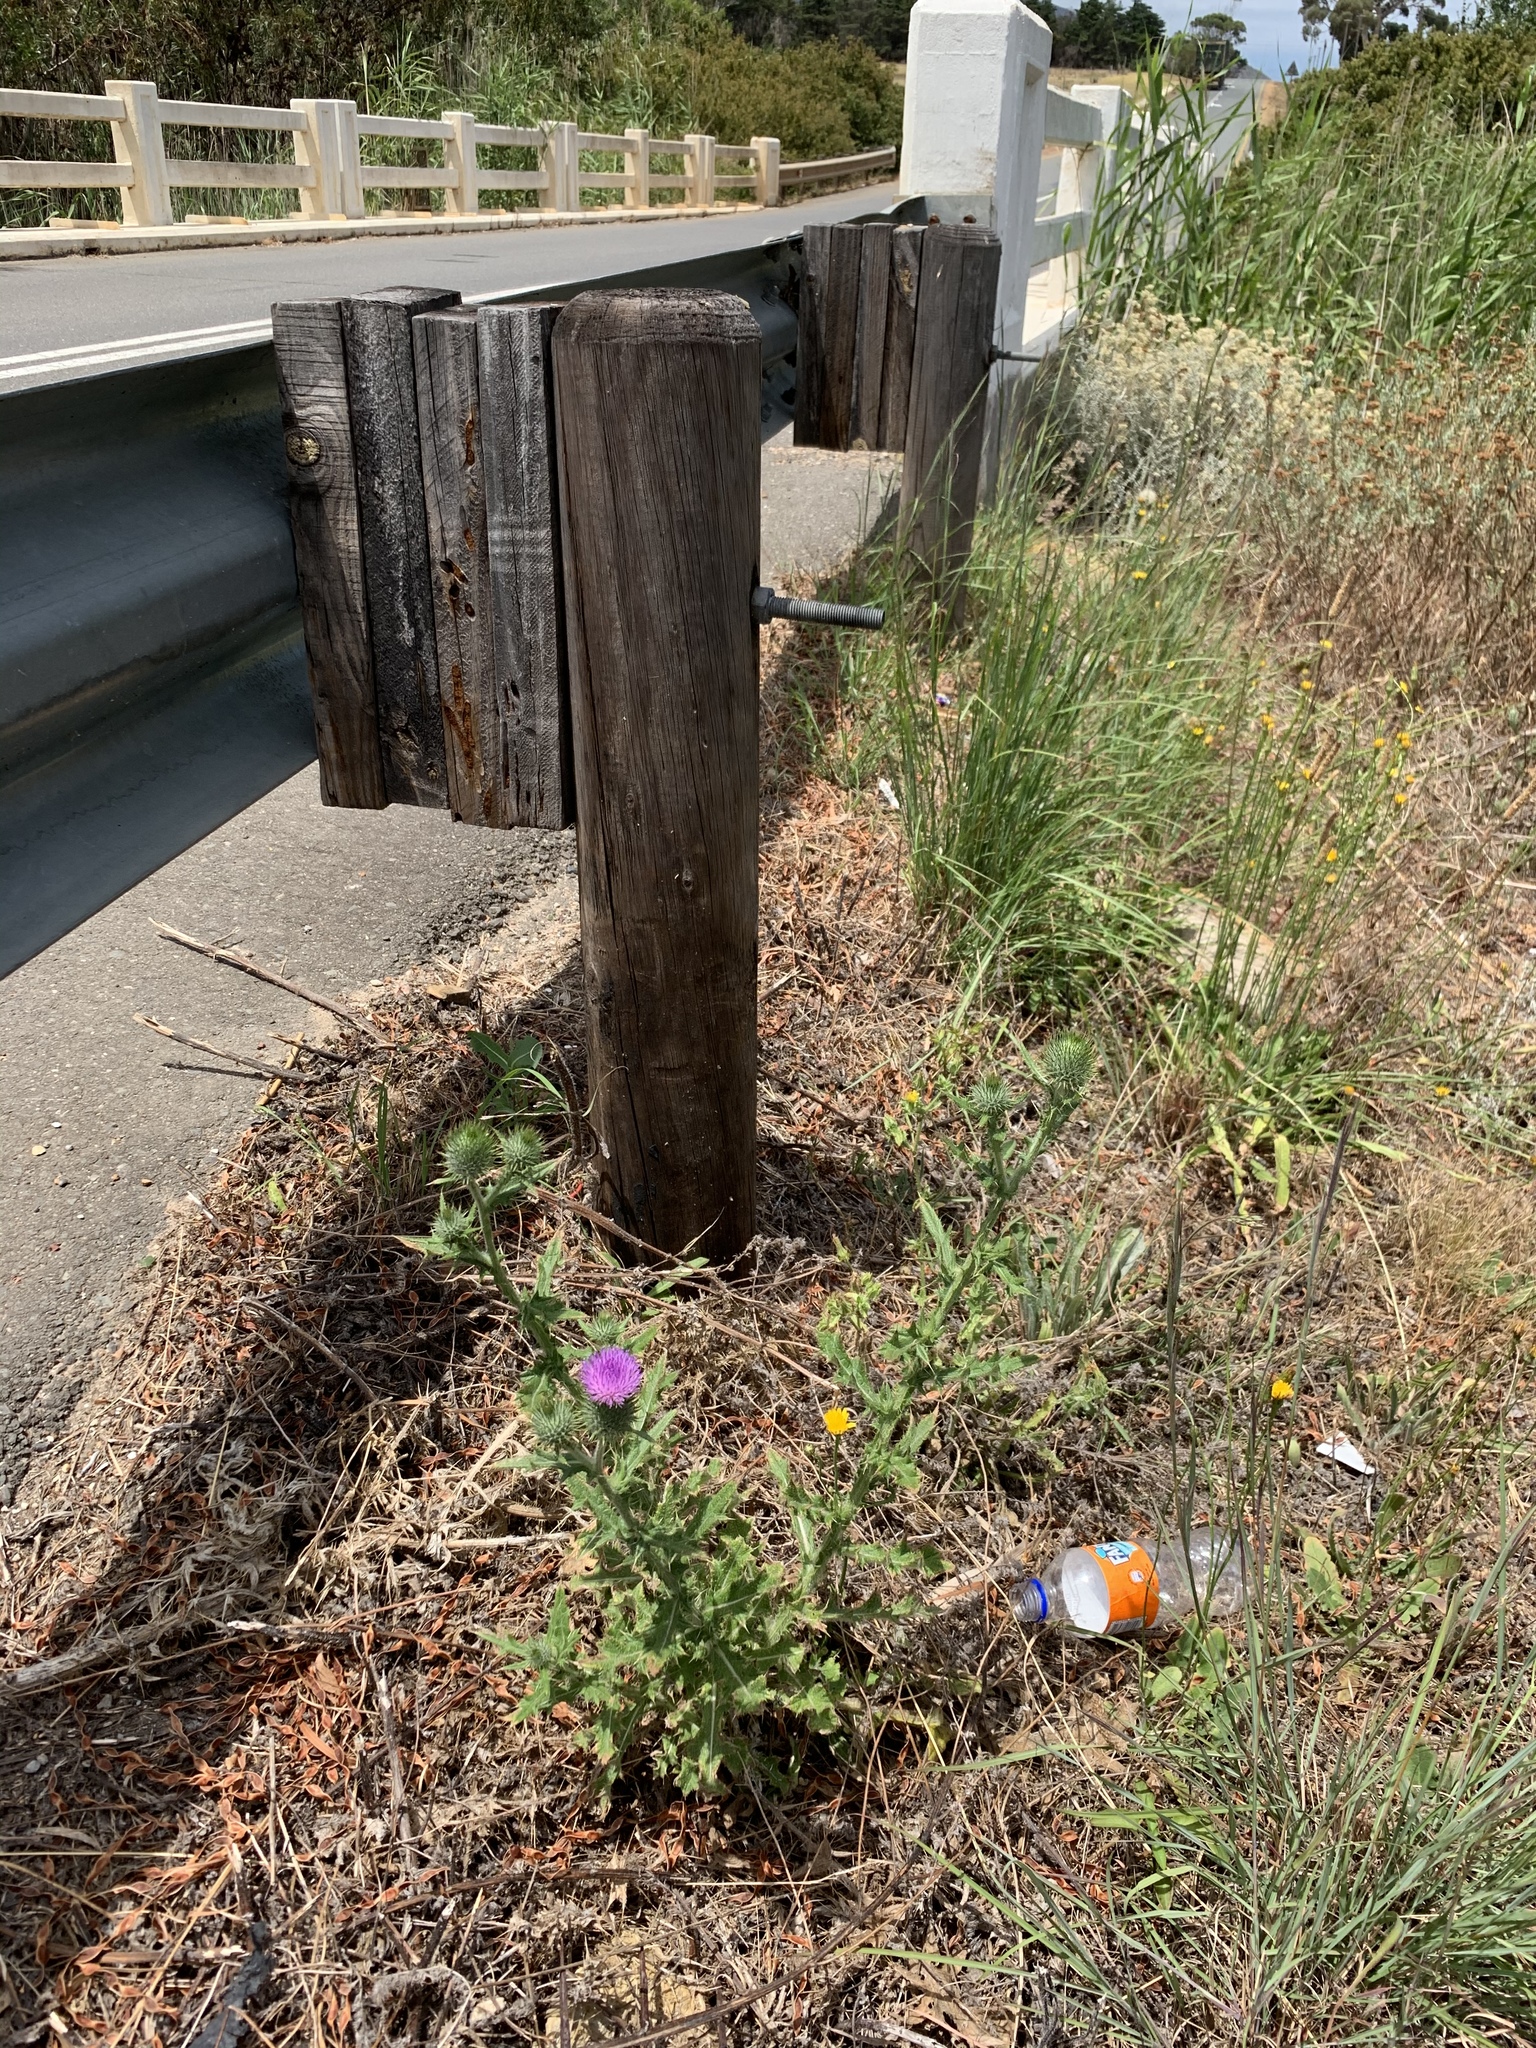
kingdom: Plantae
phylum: Tracheophyta
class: Magnoliopsida
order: Asterales
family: Asteraceae
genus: Cirsium
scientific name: Cirsium vulgare
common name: Bull thistle
